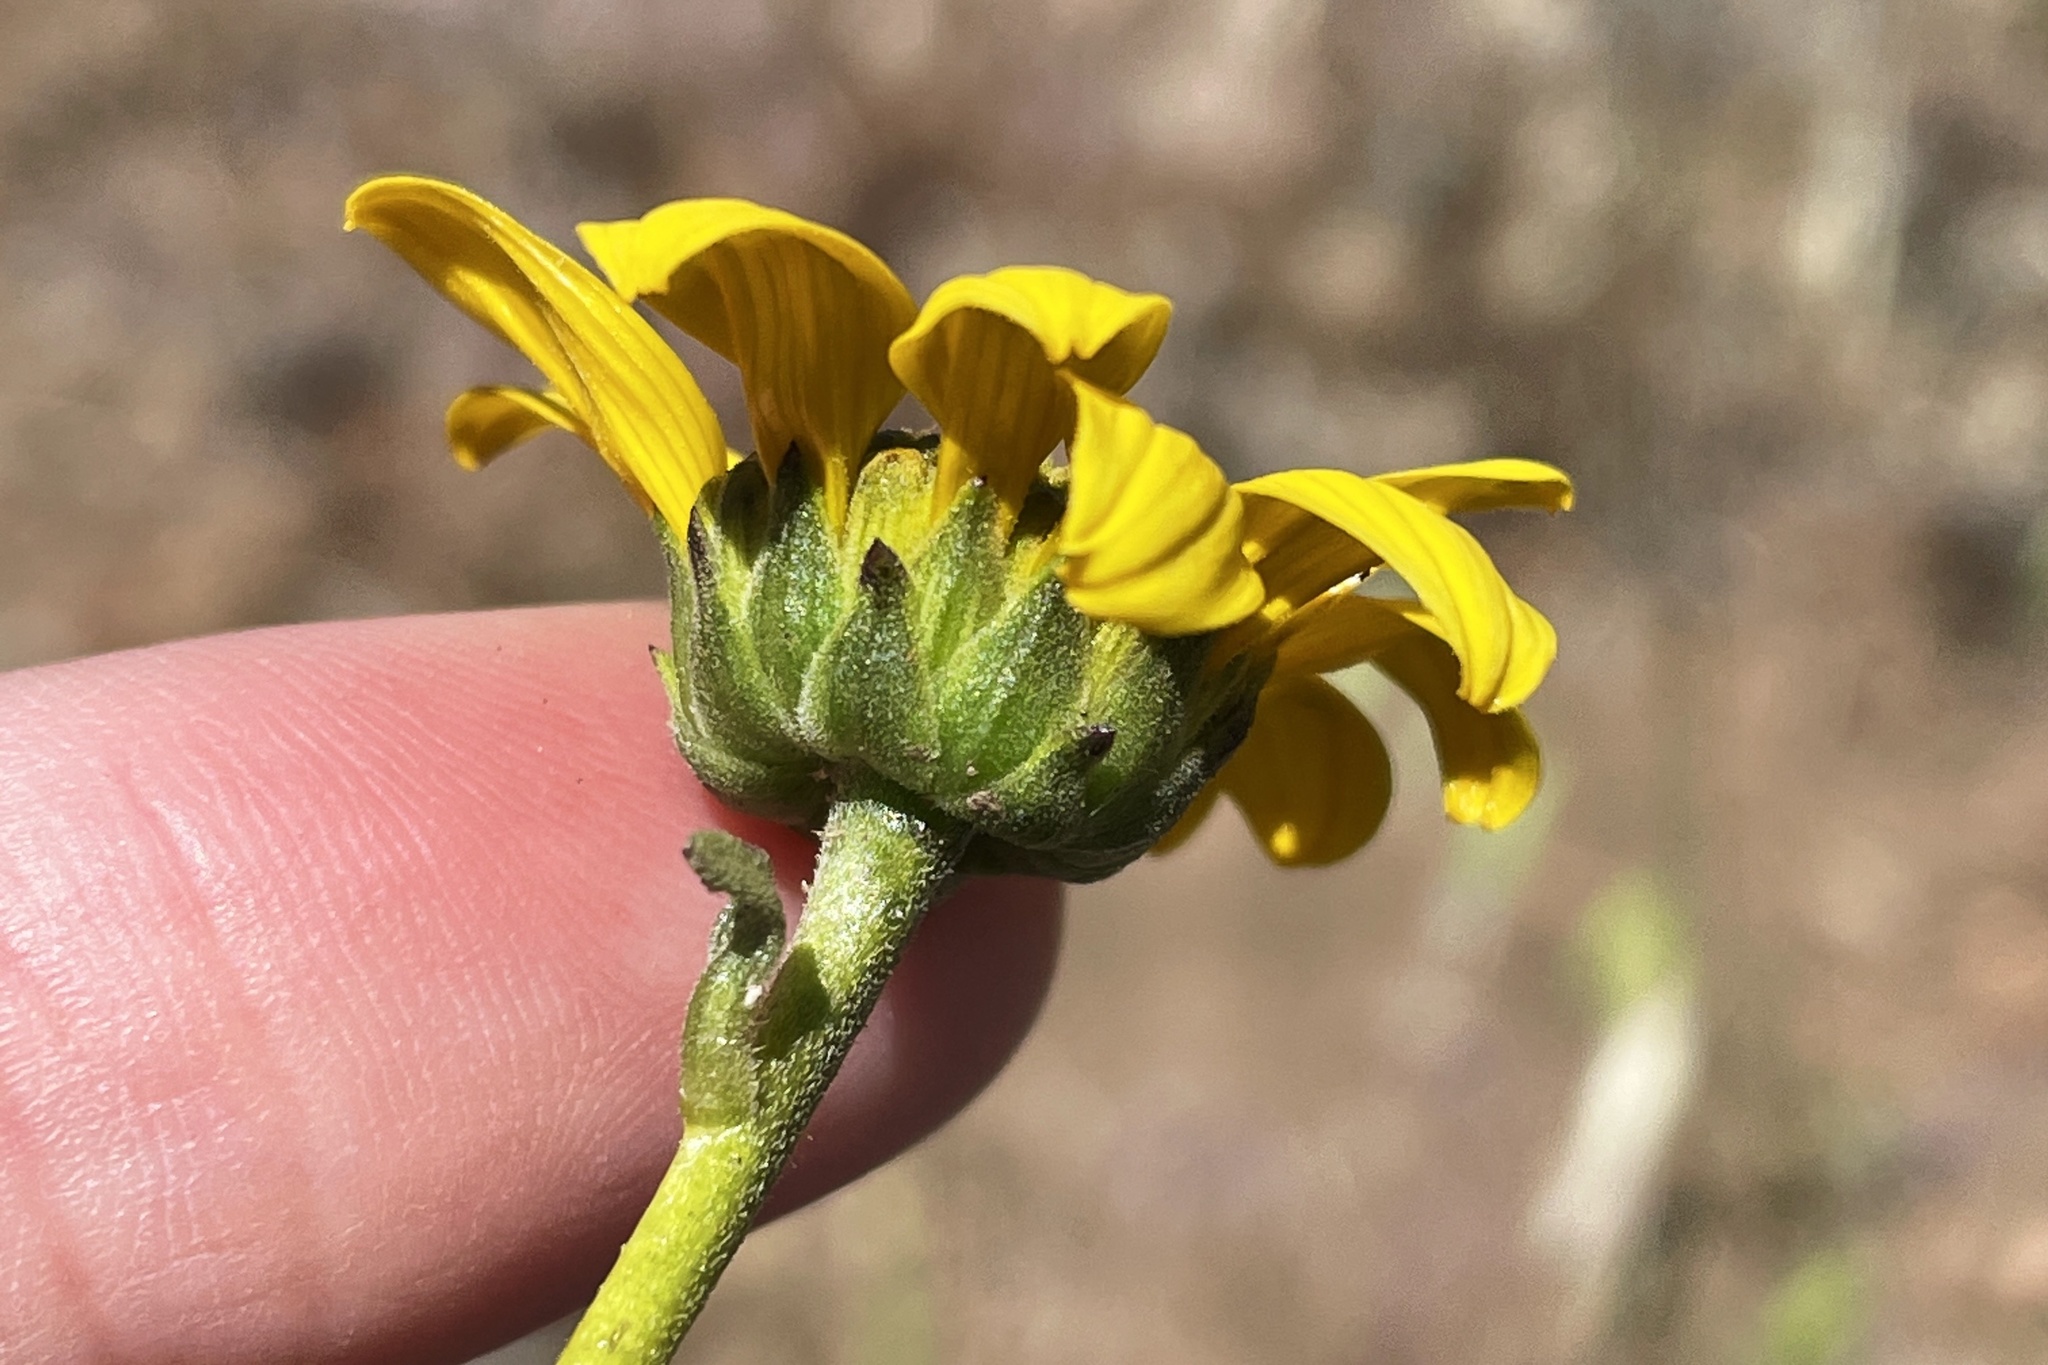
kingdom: Plantae
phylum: Tracheophyta
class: Magnoliopsida
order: Asterales
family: Asteraceae
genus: Helianthus
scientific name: Helianthus gracilentus
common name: Slender sunflower
